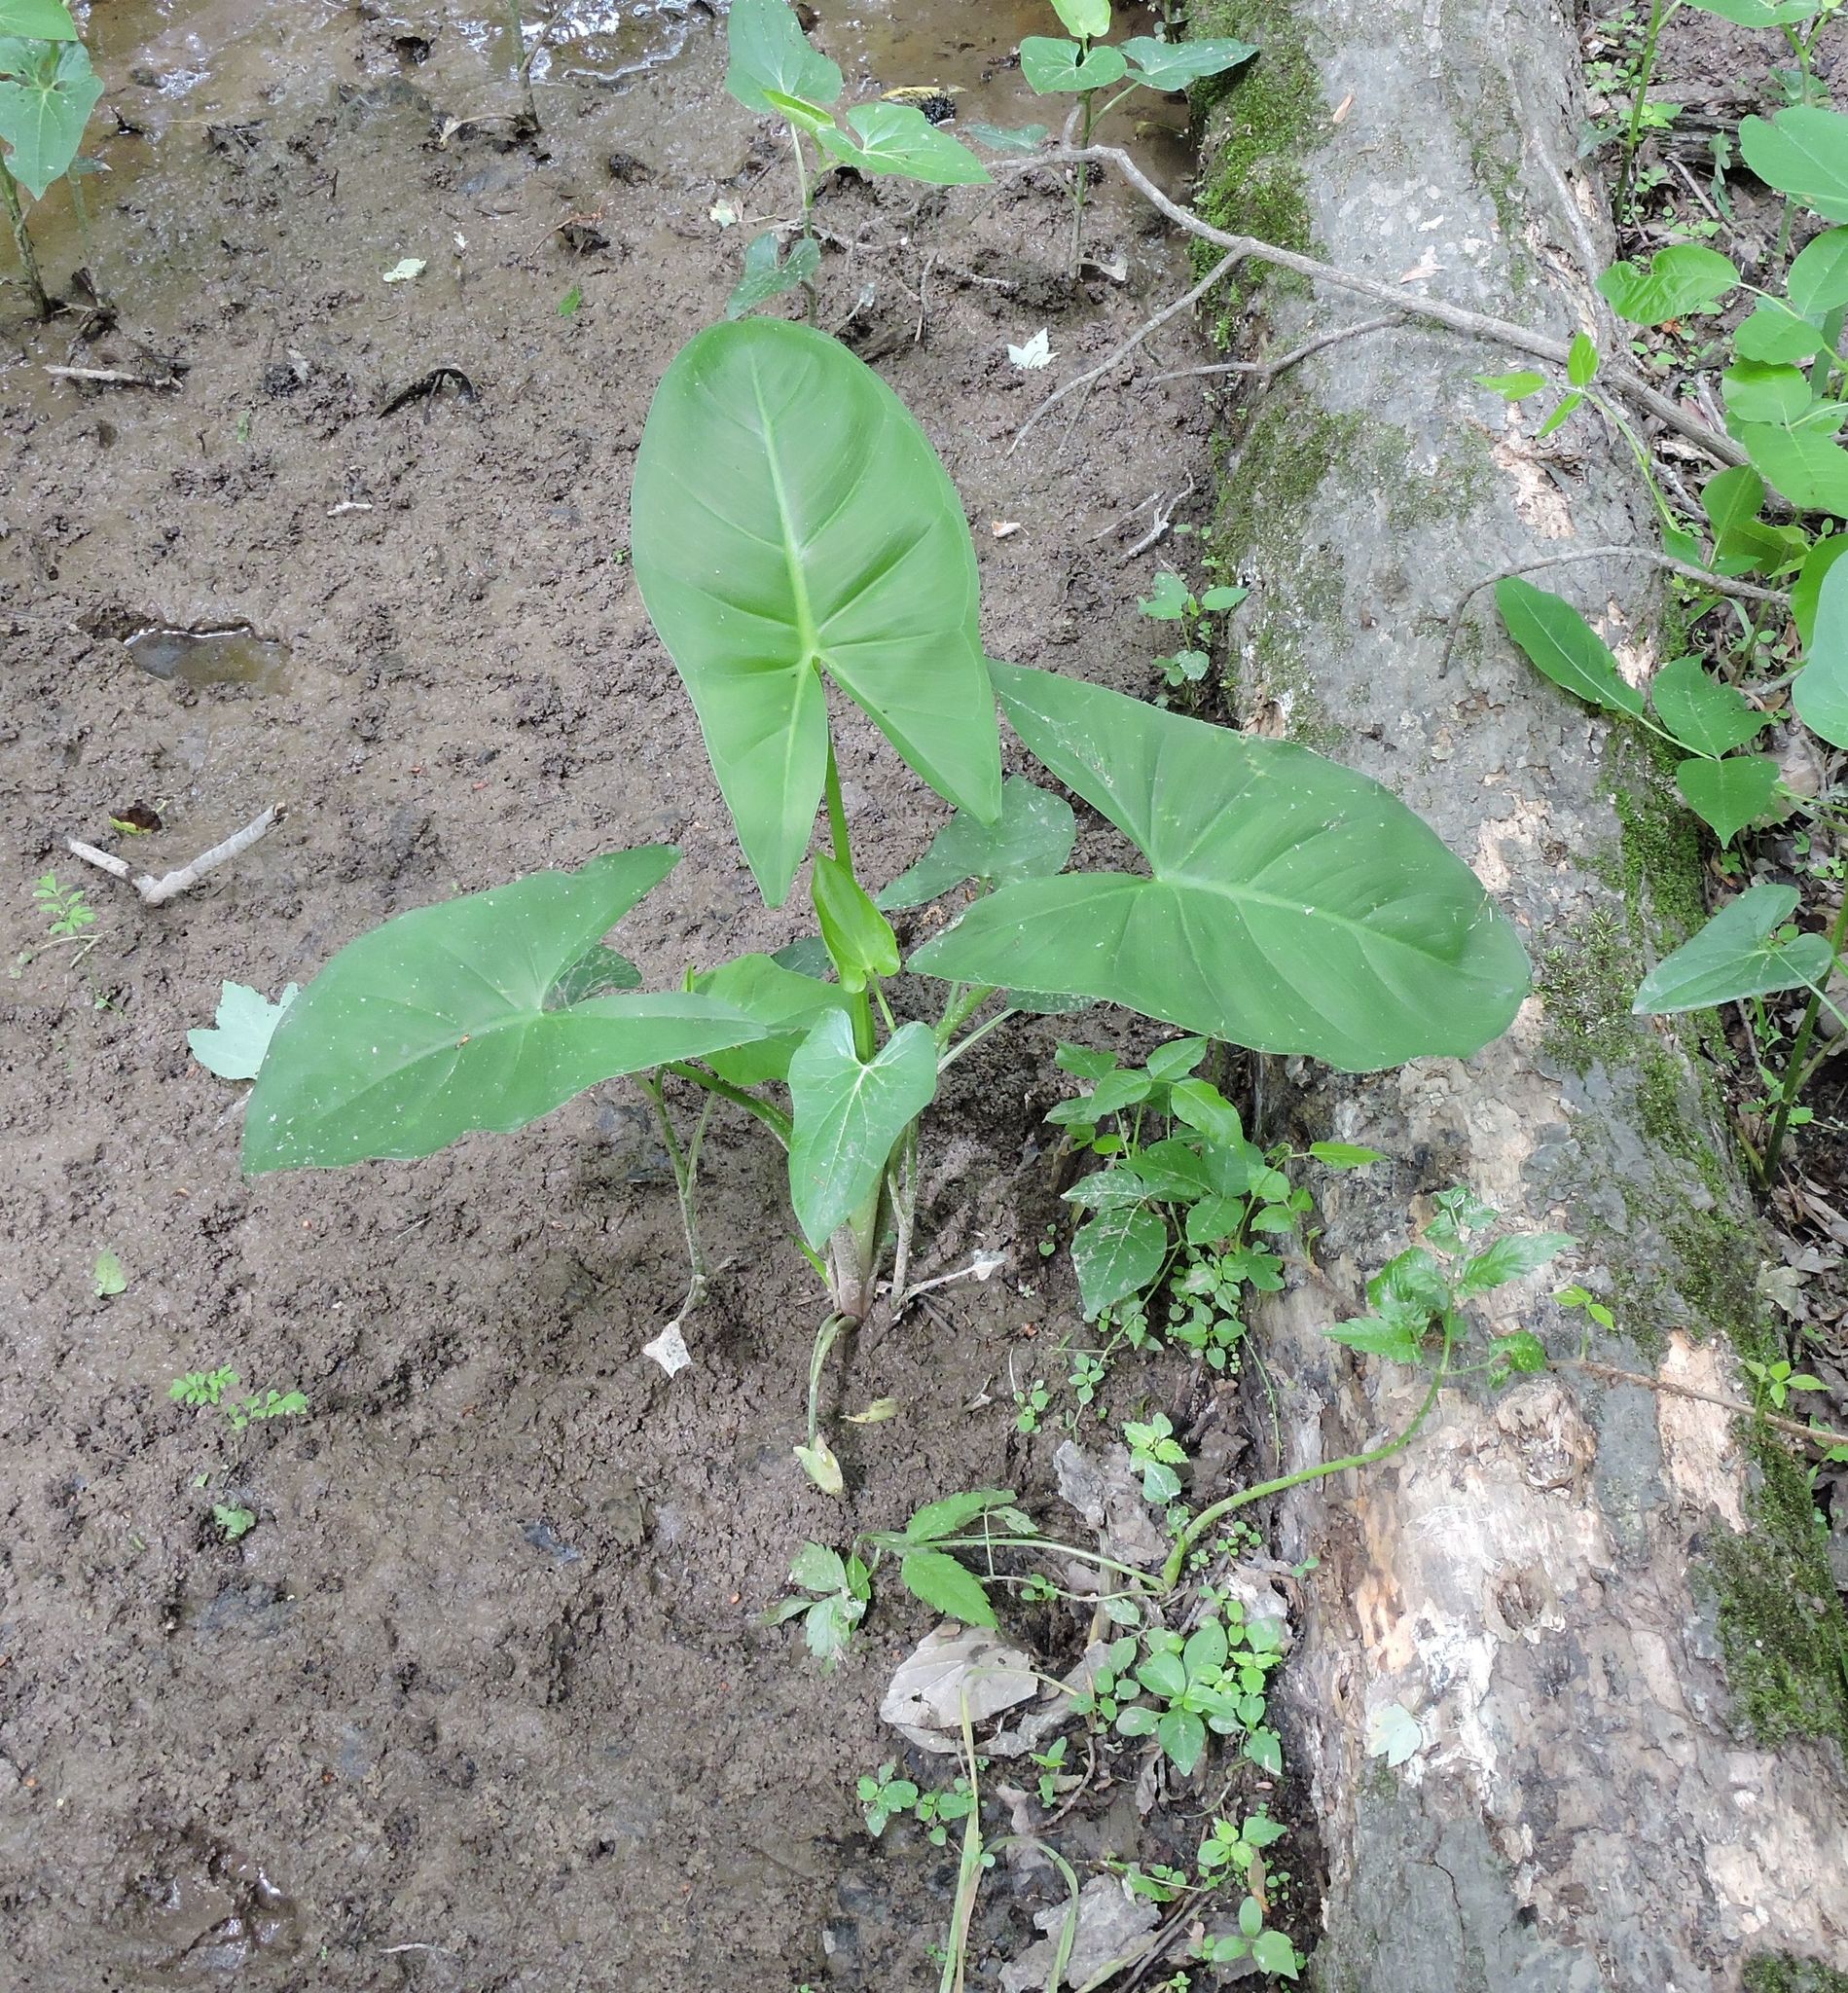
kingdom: Plantae
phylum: Tracheophyta
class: Liliopsida
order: Alismatales
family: Araceae
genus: Peltandra
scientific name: Peltandra virginica
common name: Arrow arum
